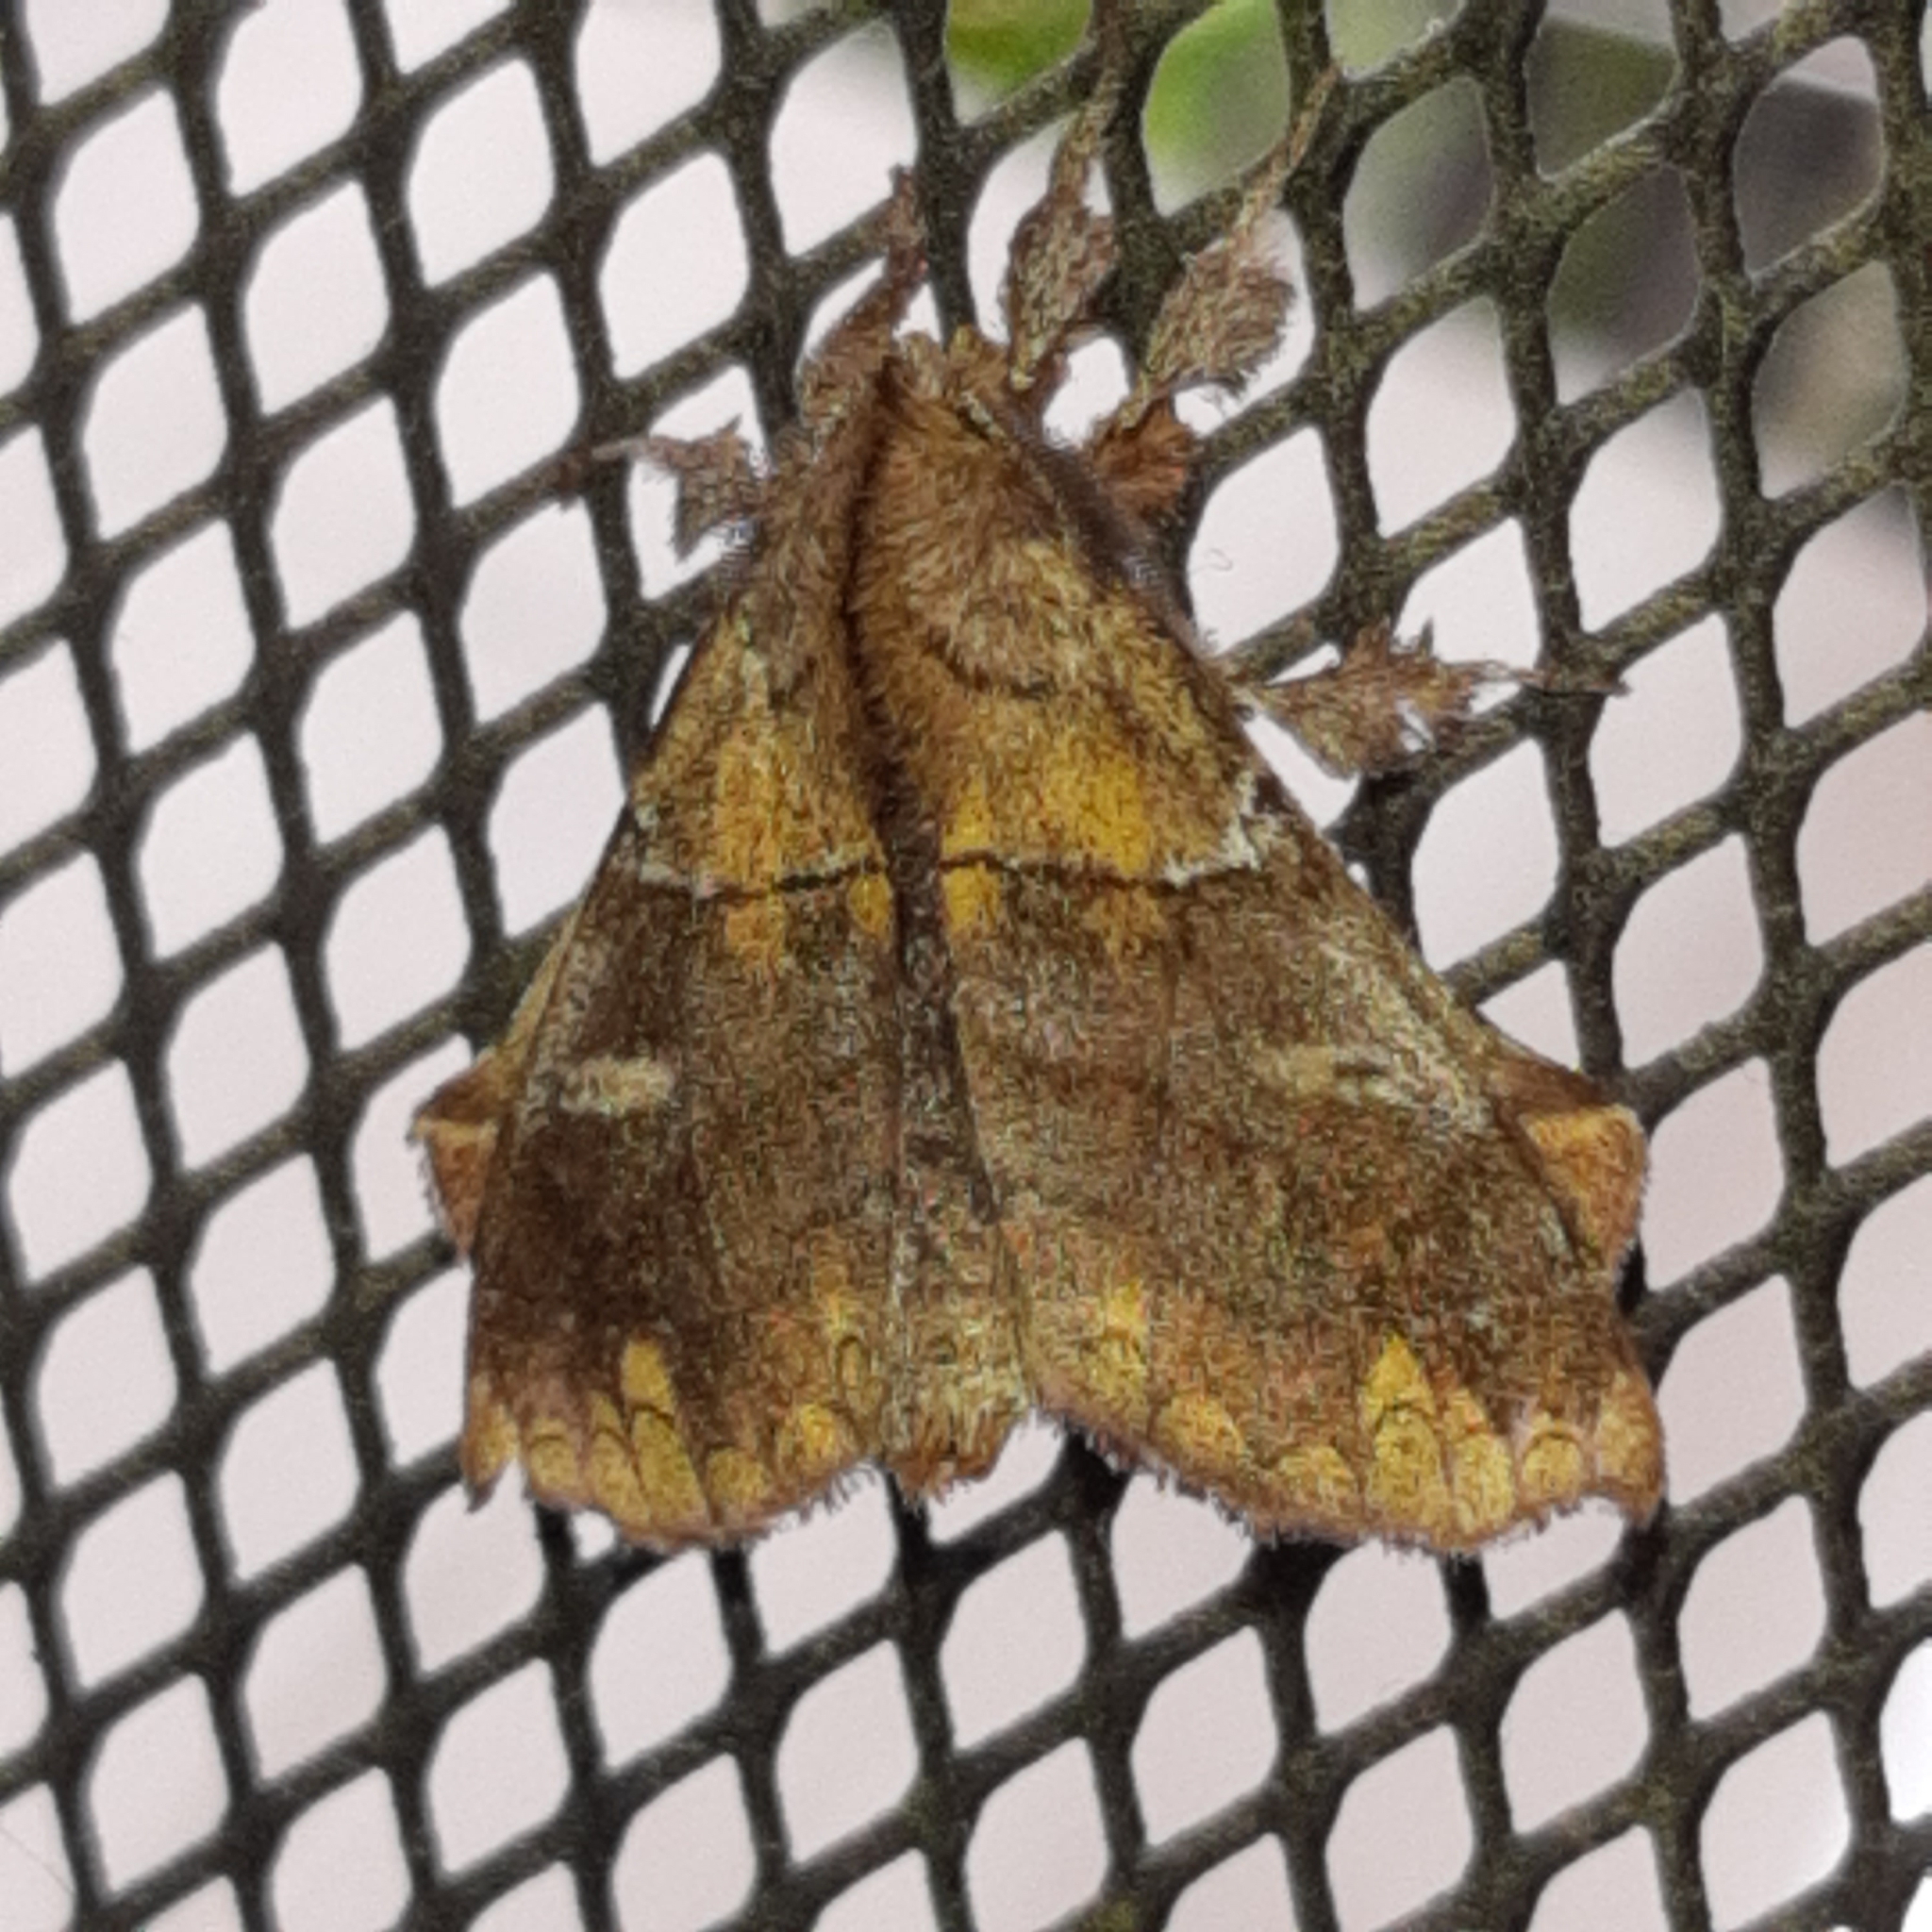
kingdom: Animalia
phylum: Arthropoda
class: Insecta
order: Lepidoptera
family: Apatelodidae
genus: Zanola
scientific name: Zanola verago
